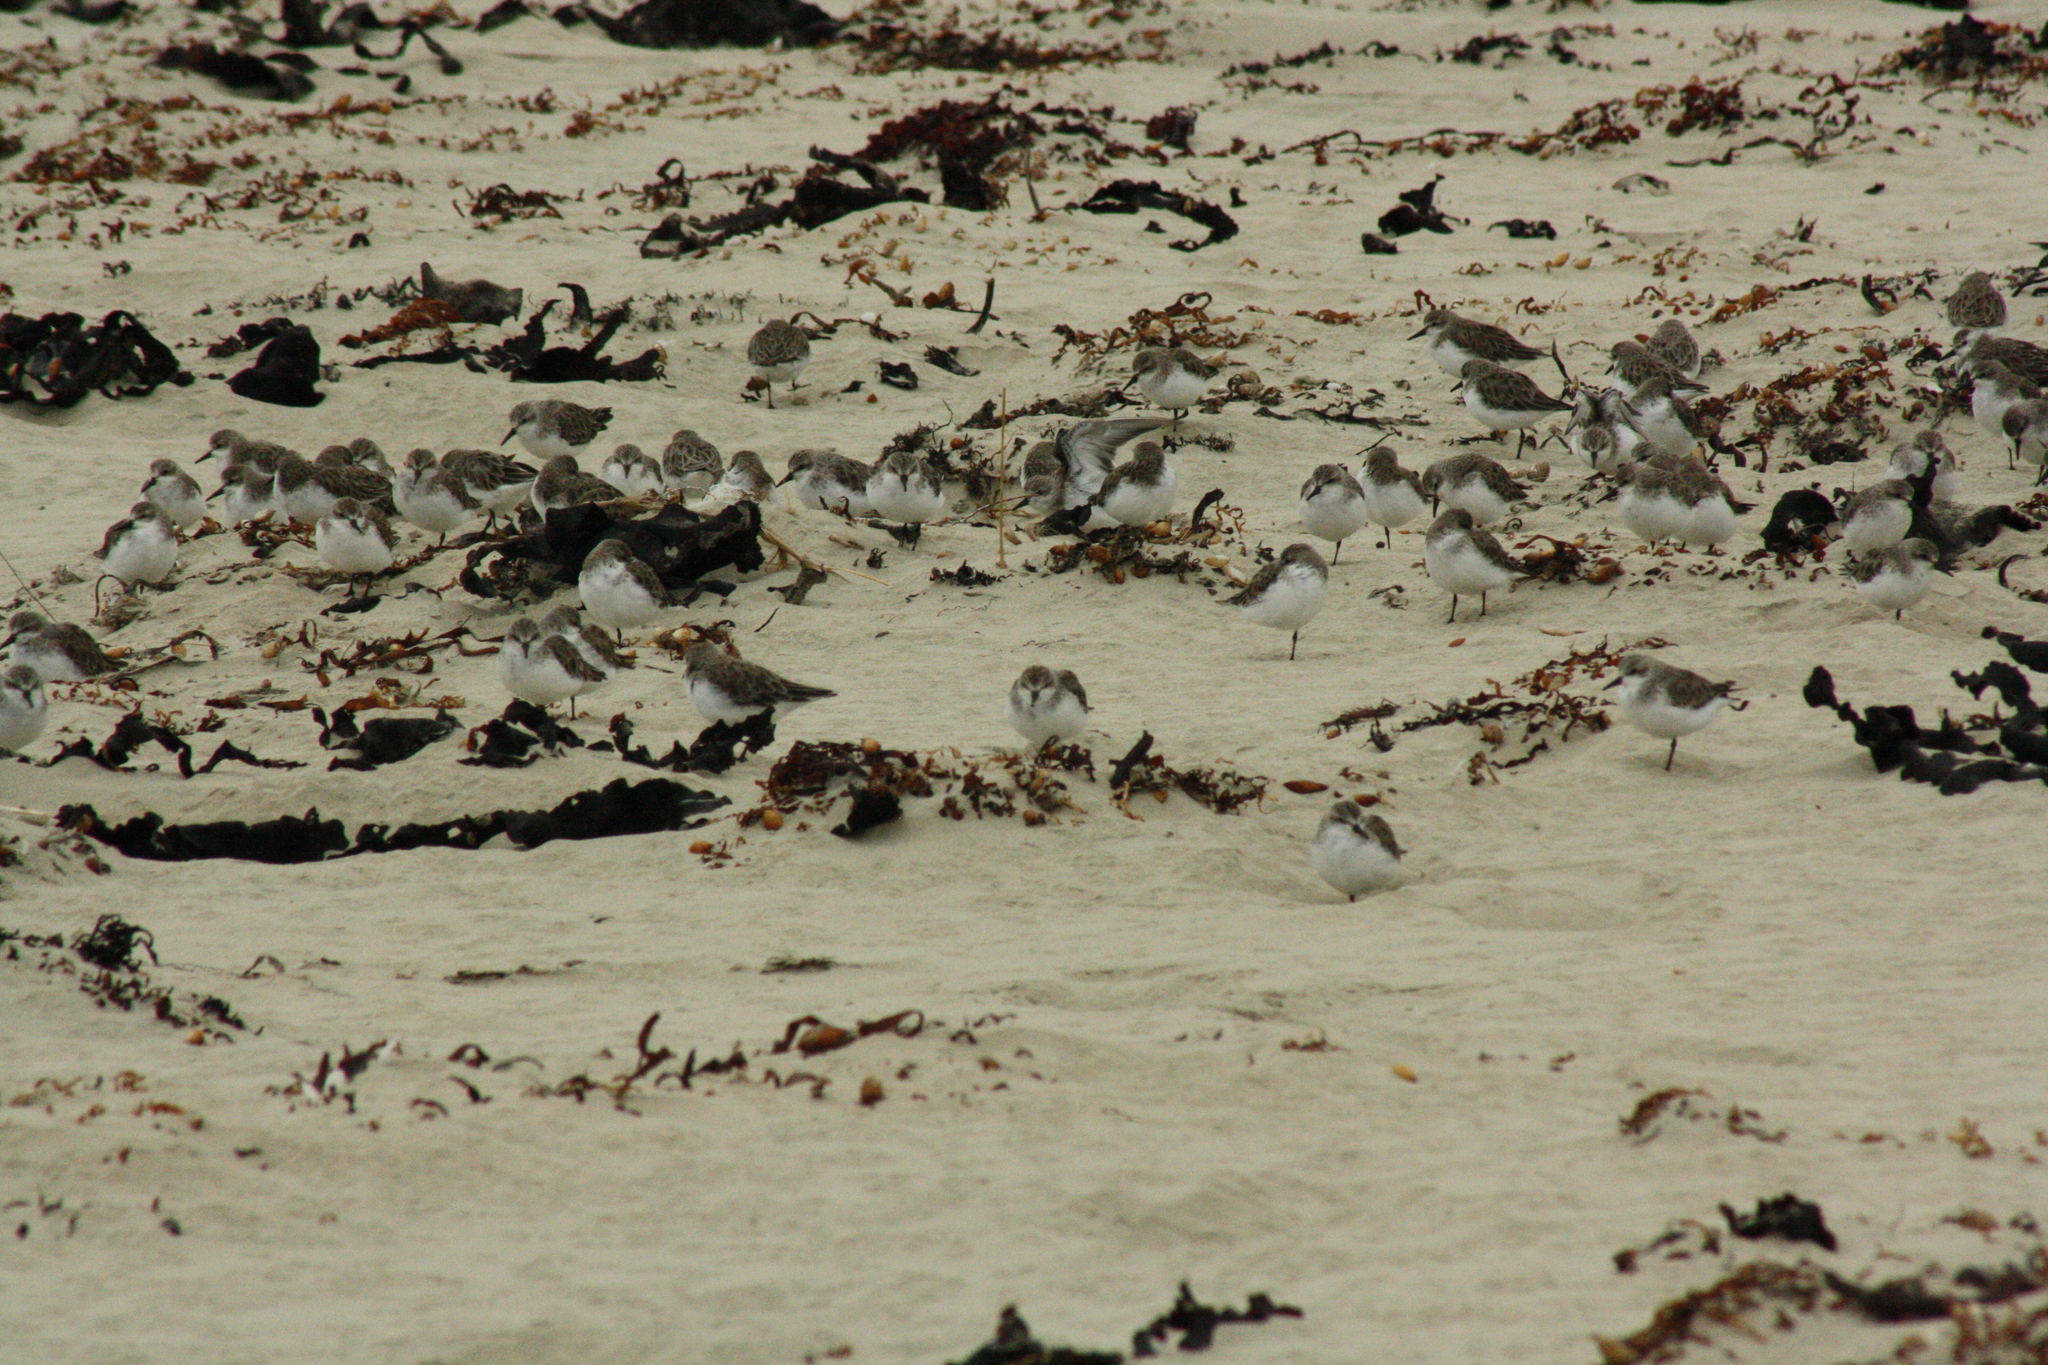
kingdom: Animalia
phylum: Chordata
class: Aves
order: Charadriiformes
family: Scolopacidae
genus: Calidris
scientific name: Calidris ruficollis
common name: Red-necked stint
